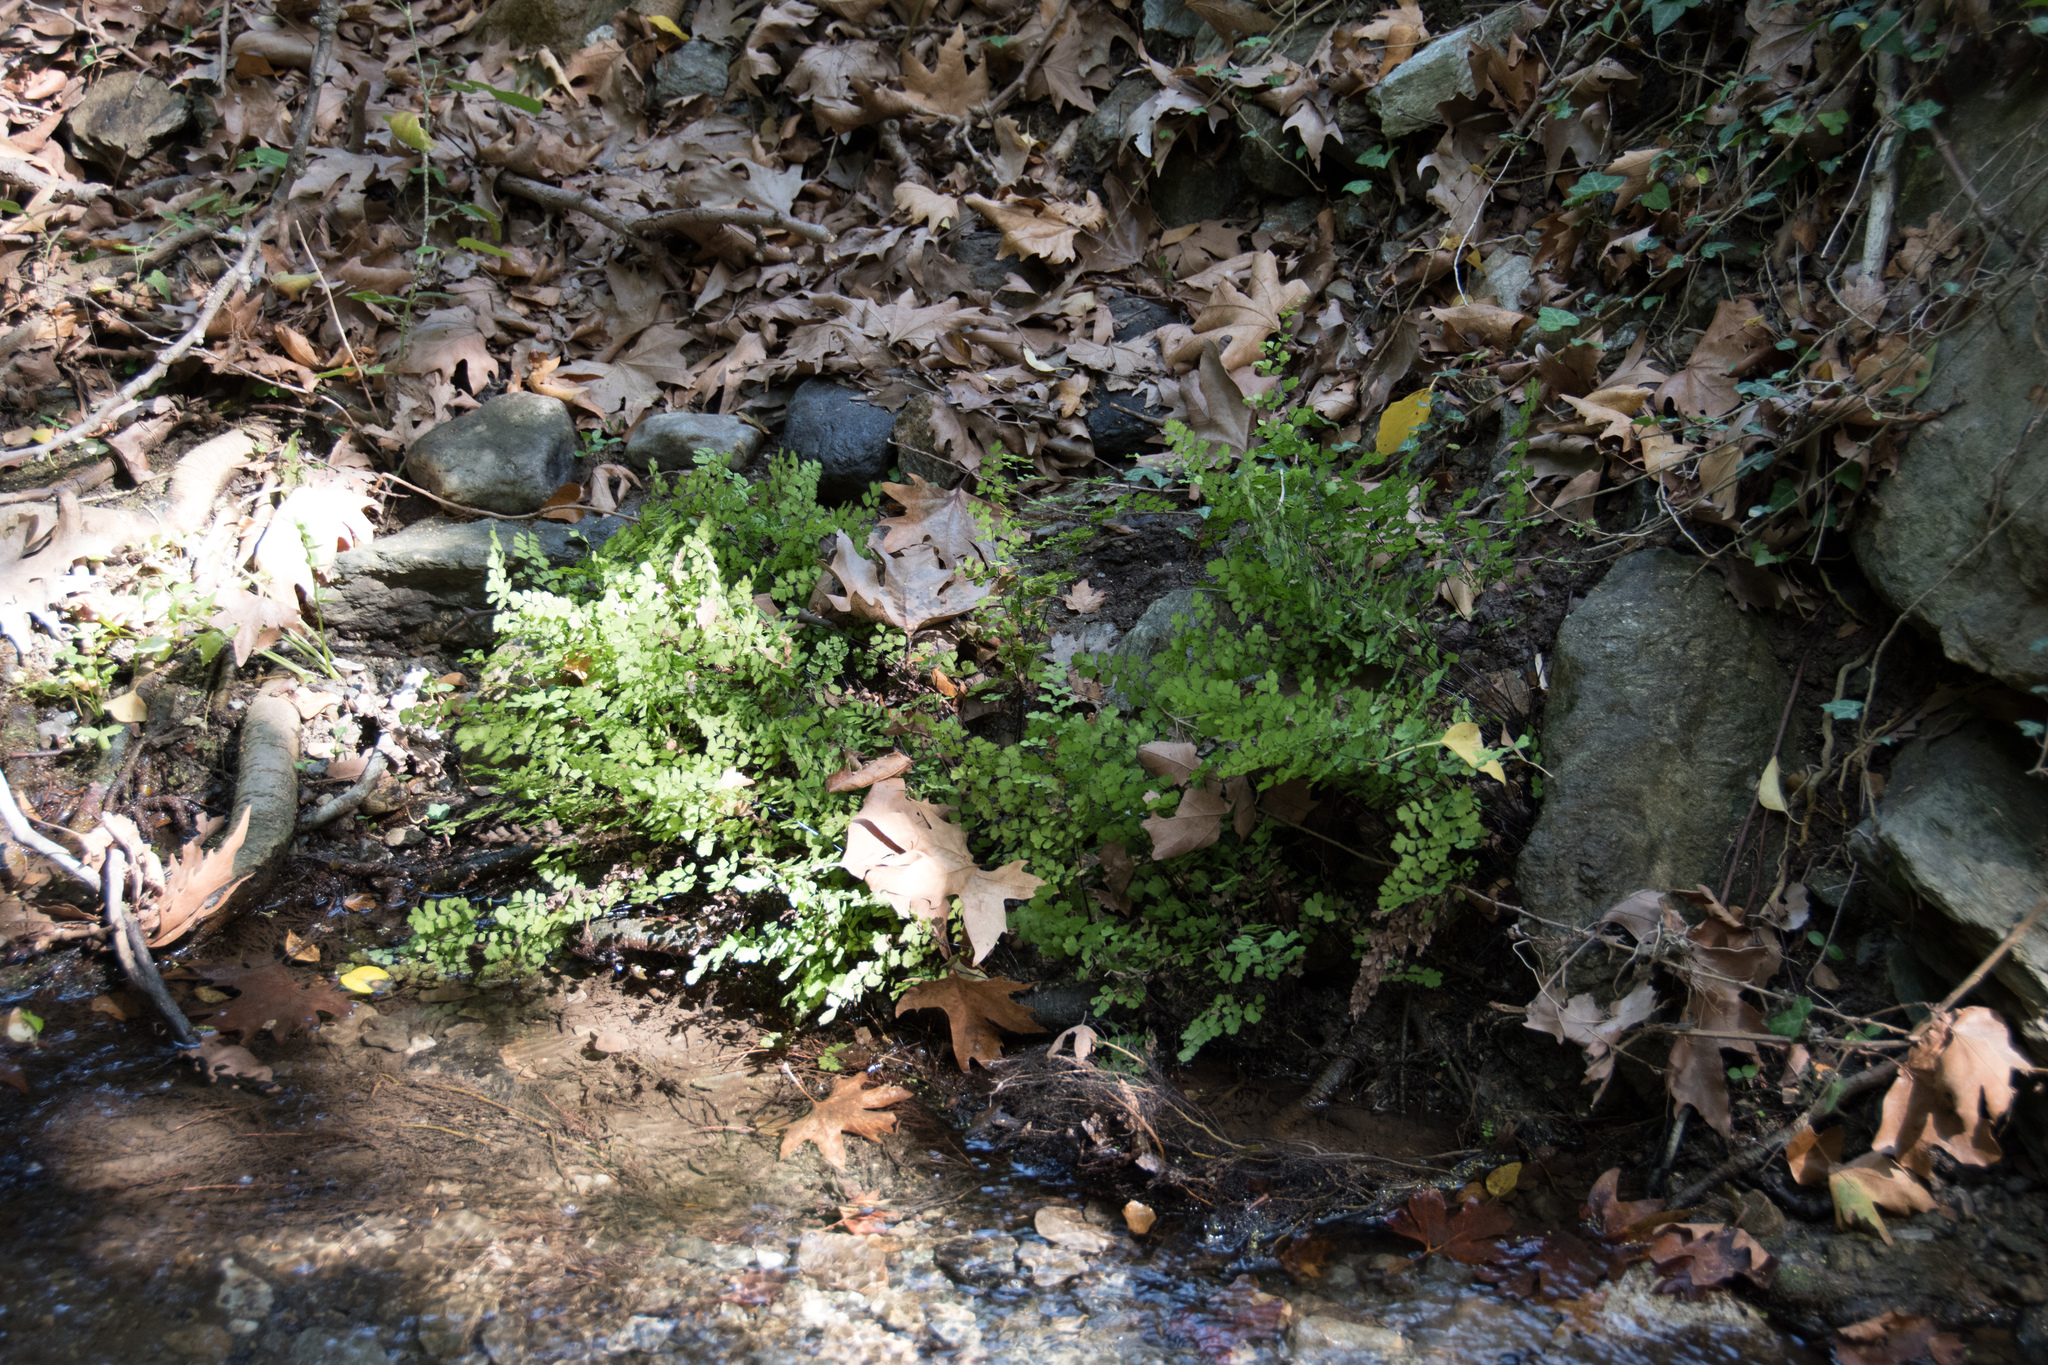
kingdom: Plantae
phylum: Tracheophyta
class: Polypodiopsida
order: Polypodiales
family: Pteridaceae
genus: Adiantum
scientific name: Adiantum capillus-veneris
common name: Maidenhair fern
